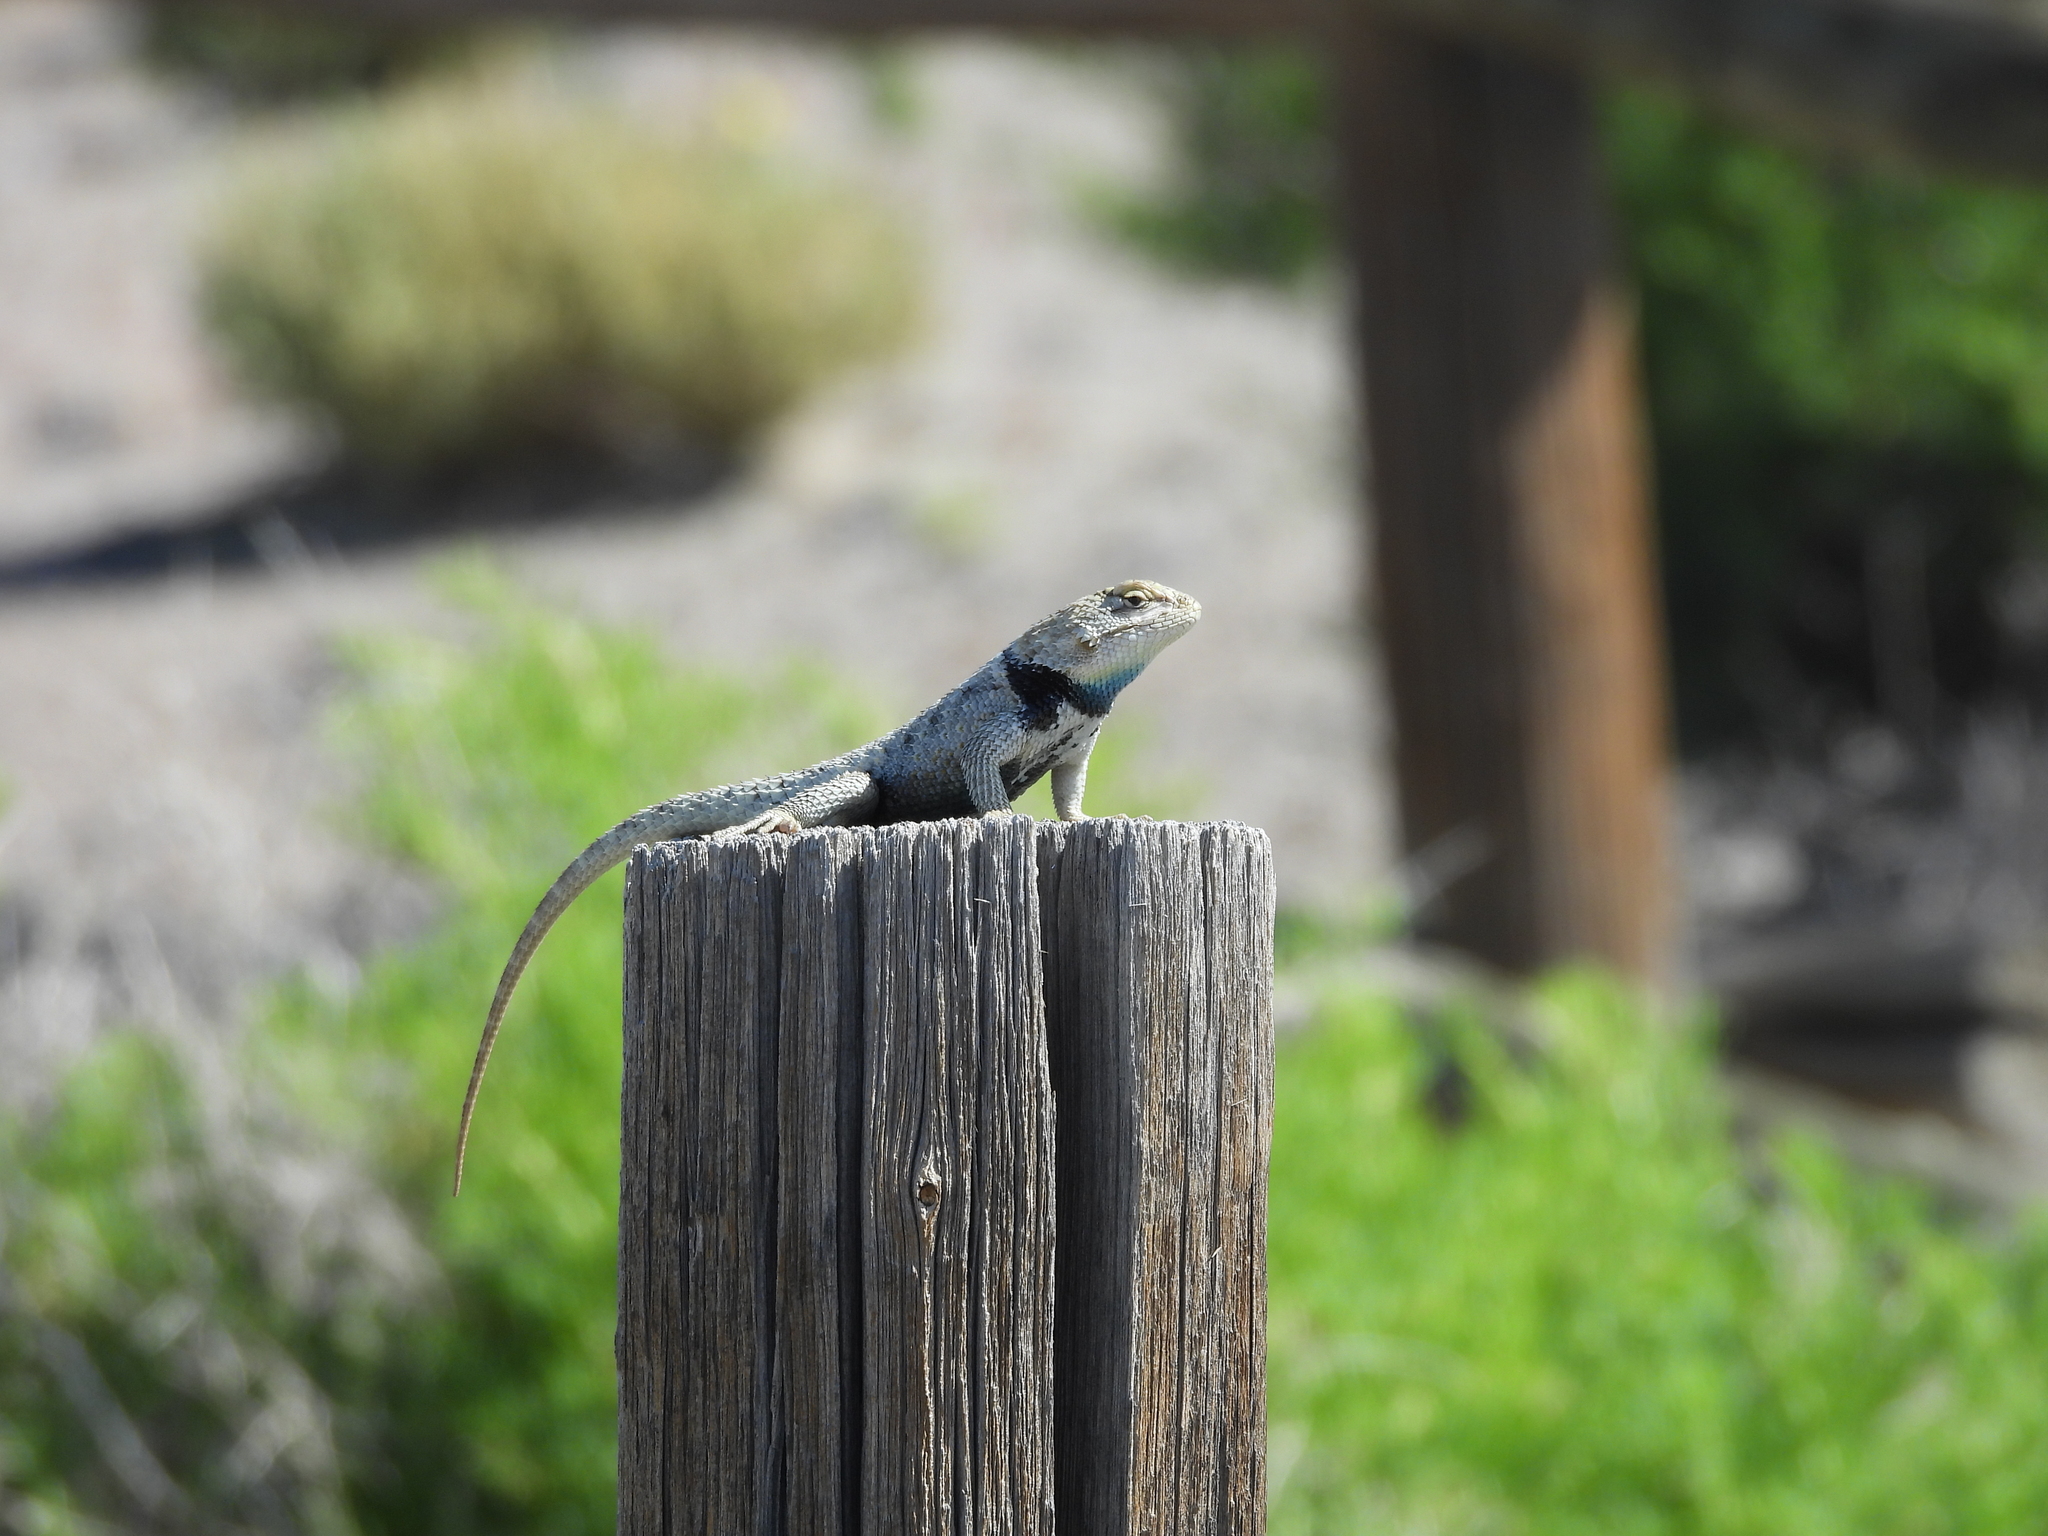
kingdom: Animalia
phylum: Chordata
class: Squamata
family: Phrynosomatidae
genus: Sceloporus
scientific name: Sceloporus uniformis
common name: Yellow-backed spiny lizard
